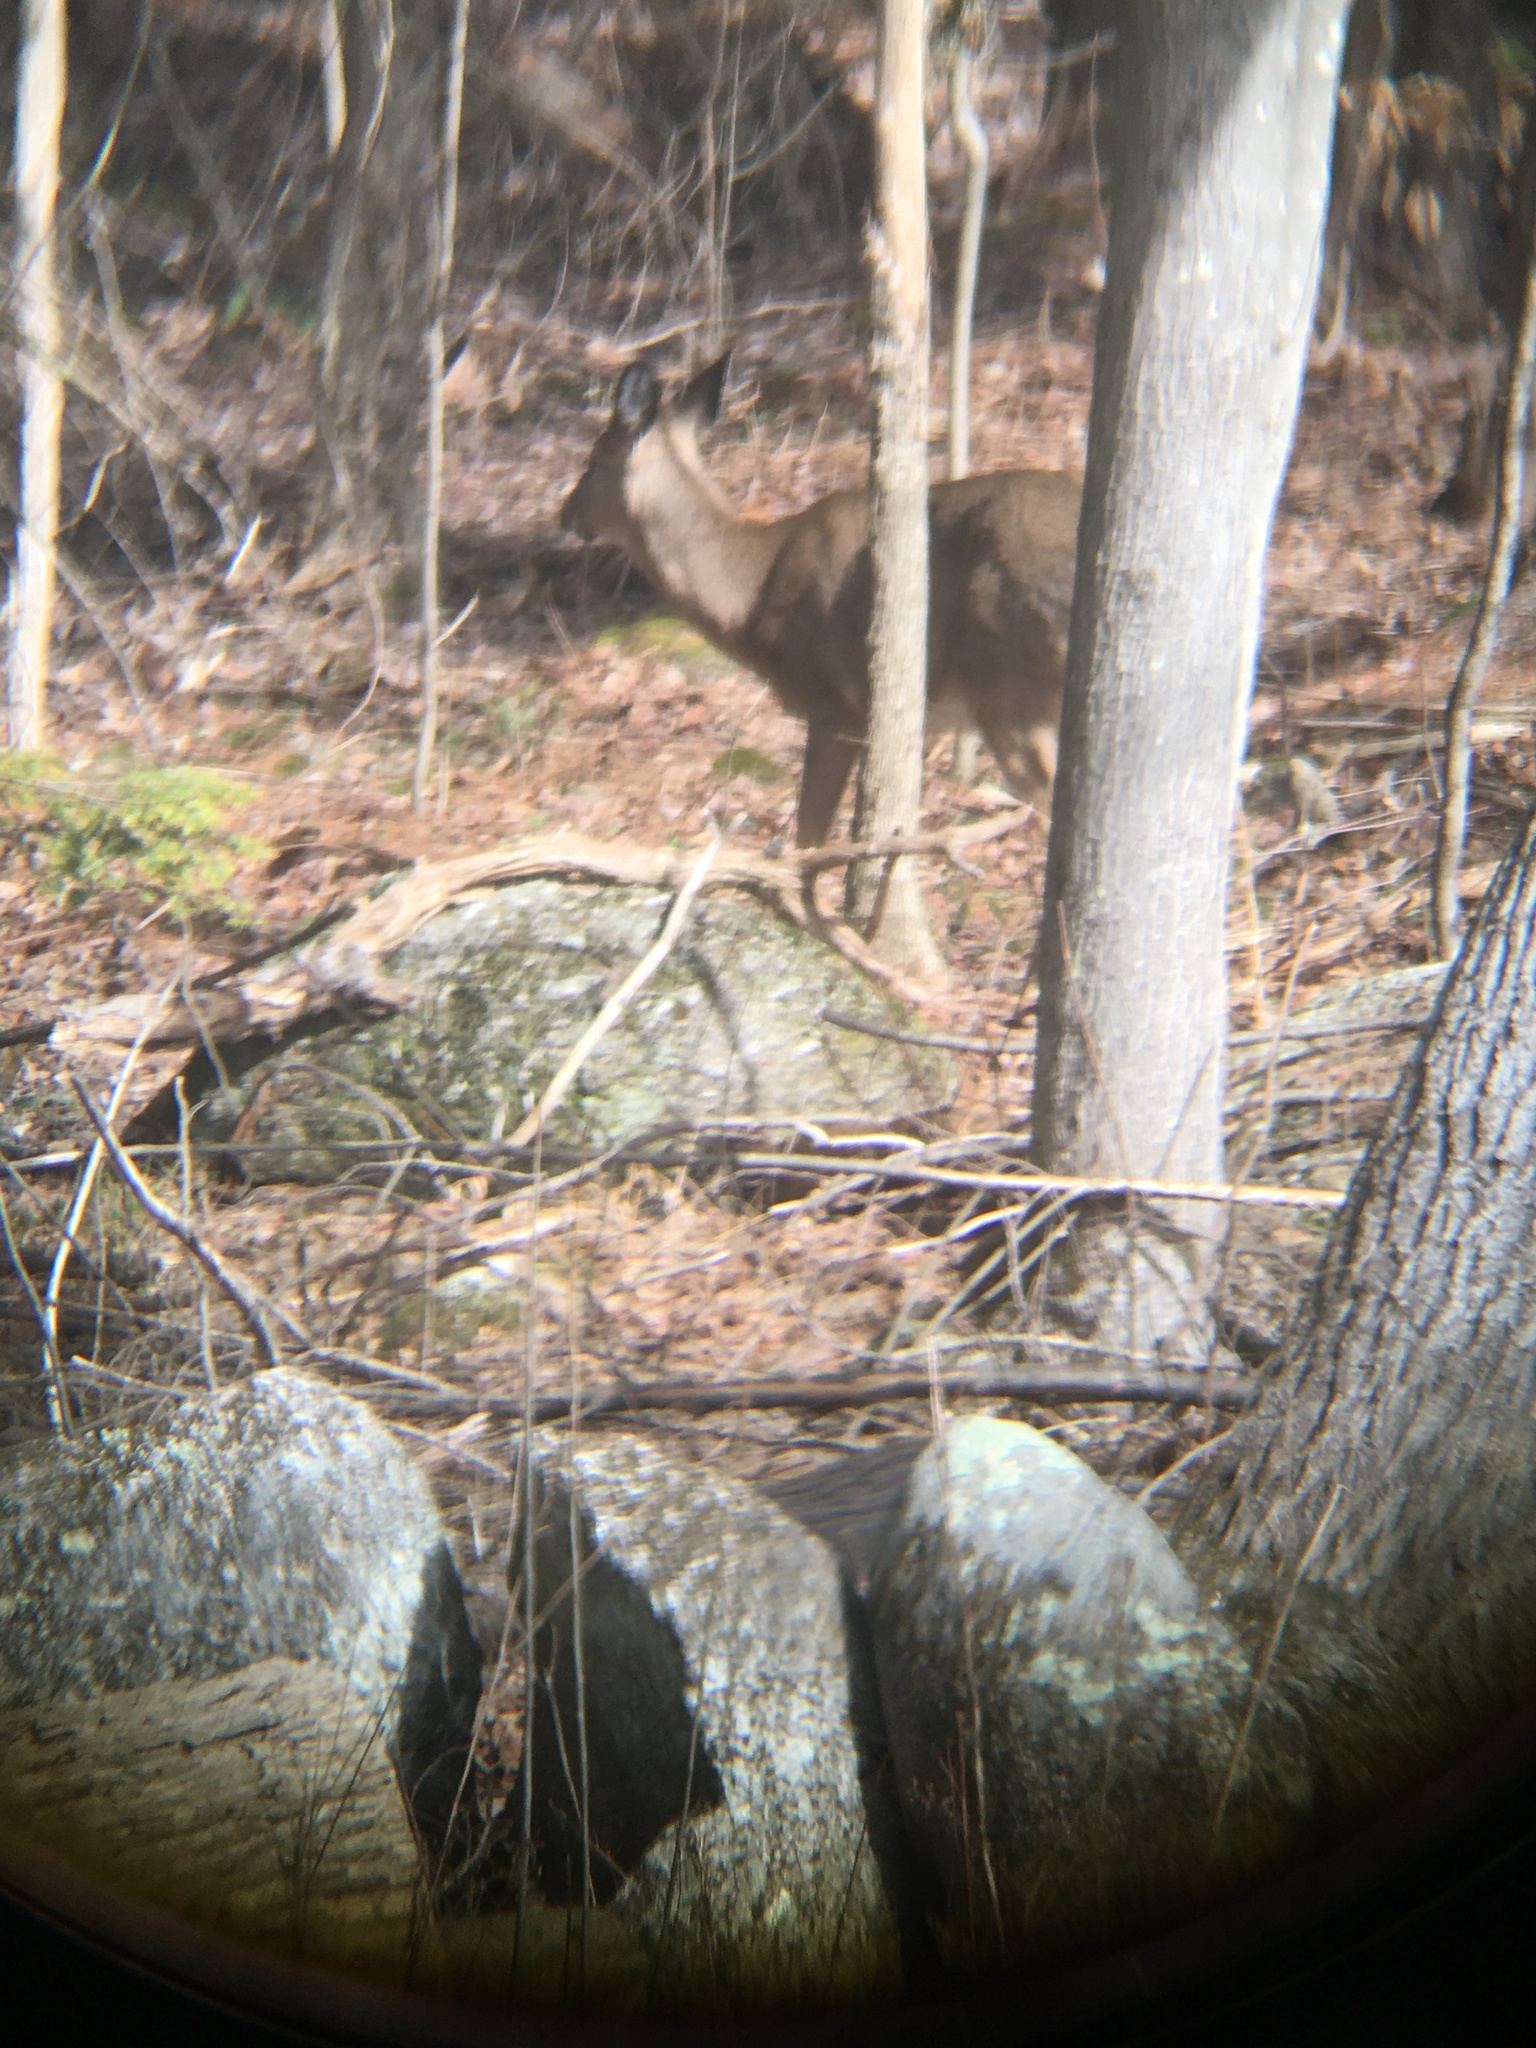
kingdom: Animalia
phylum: Chordata
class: Mammalia
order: Artiodactyla
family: Cervidae
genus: Odocoileus
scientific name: Odocoileus virginianus
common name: White-tailed deer
